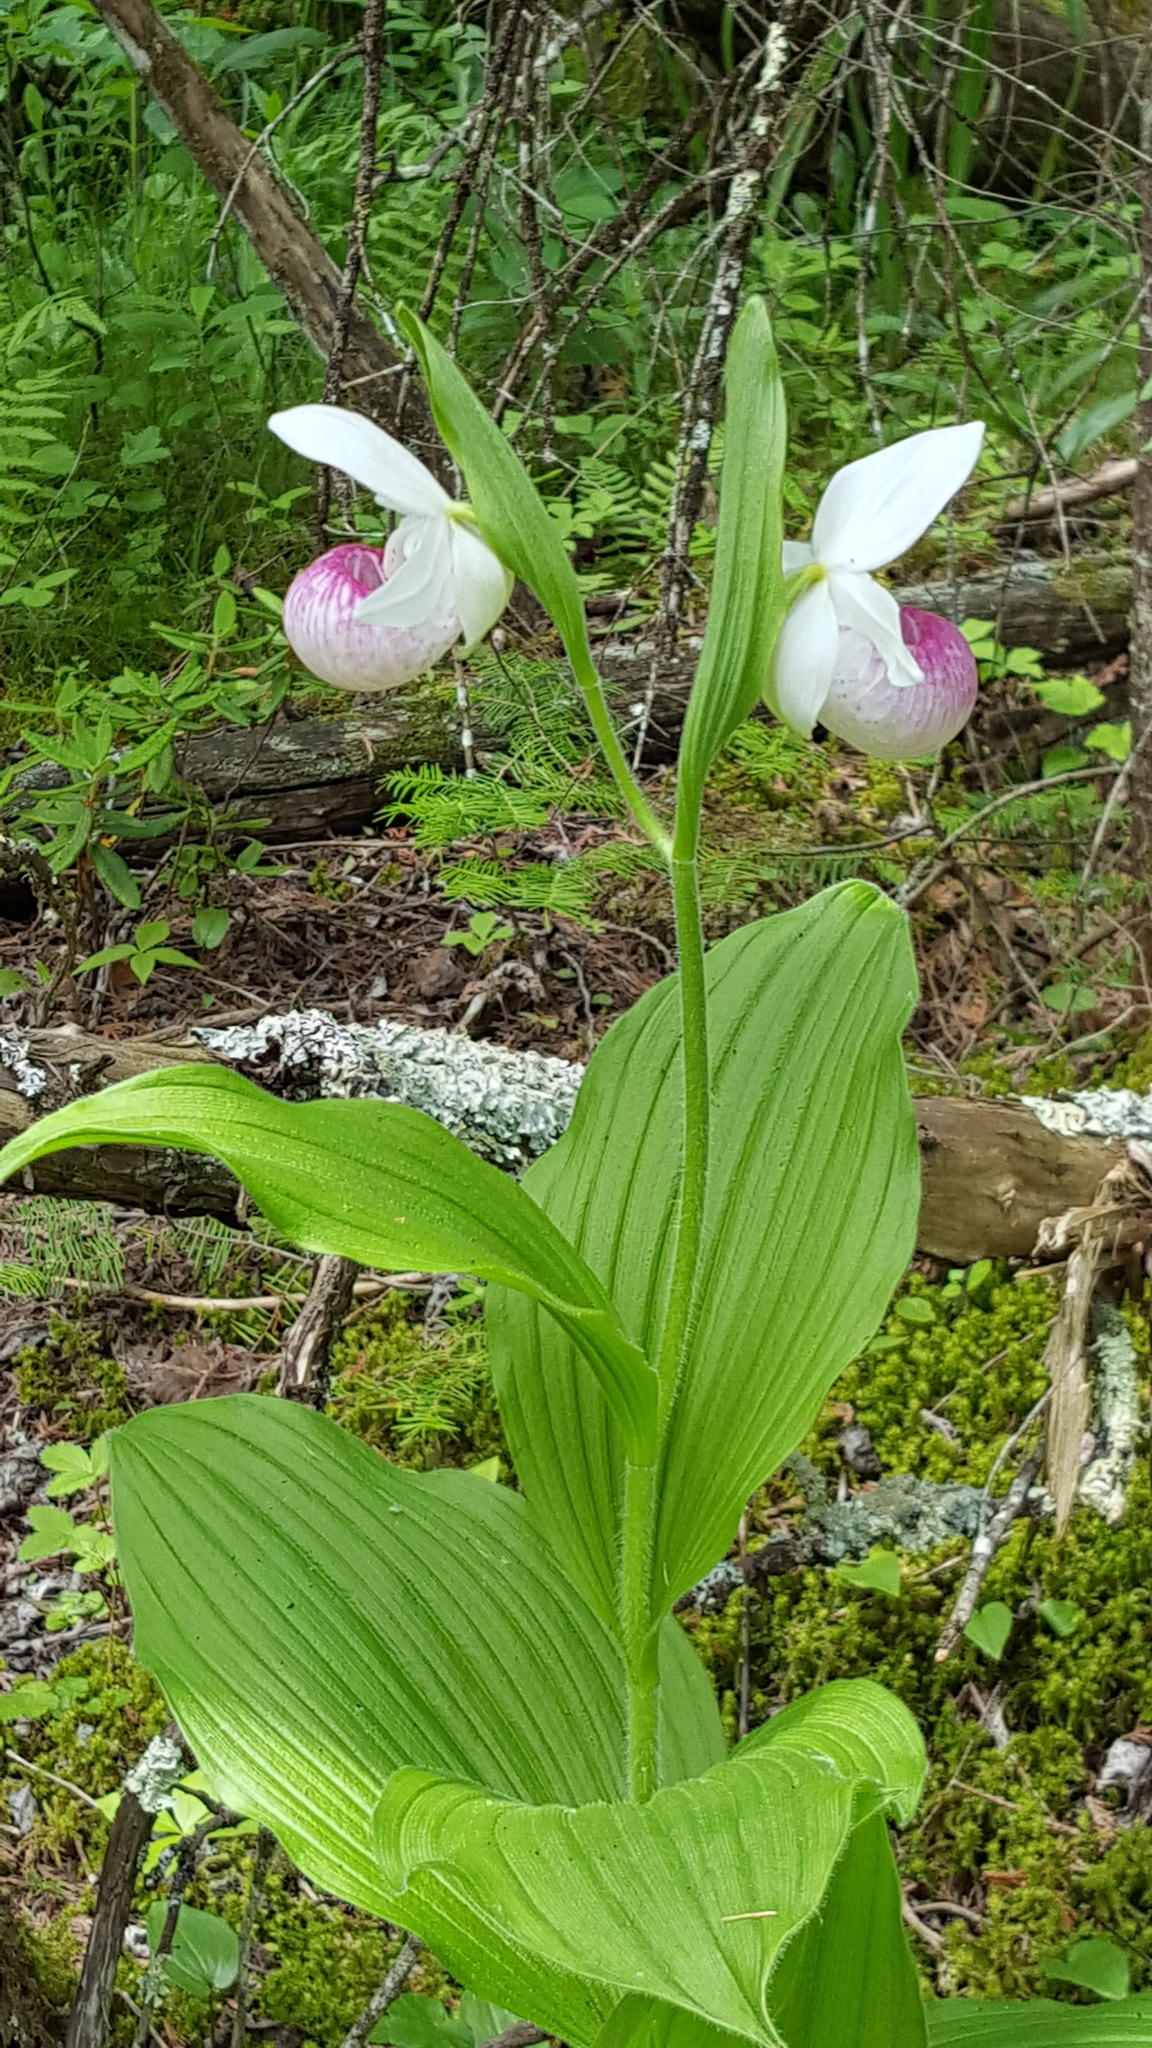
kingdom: Plantae
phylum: Tracheophyta
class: Liliopsida
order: Asparagales
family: Orchidaceae
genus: Cypripedium
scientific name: Cypripedium reginae
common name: Queen lady's-slipper
